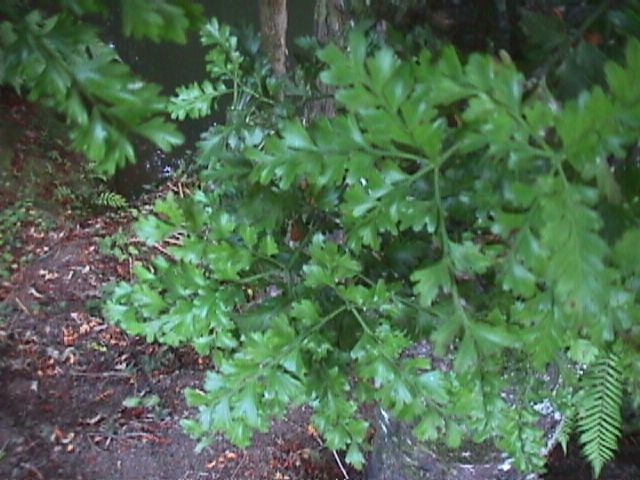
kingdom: Plantae
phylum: Tracheophyta
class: Pinopsida
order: Pinales
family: Phyllocladaceae
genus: Phyllocladus
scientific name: Phyllocladus trichomanoides
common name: Celery pine
